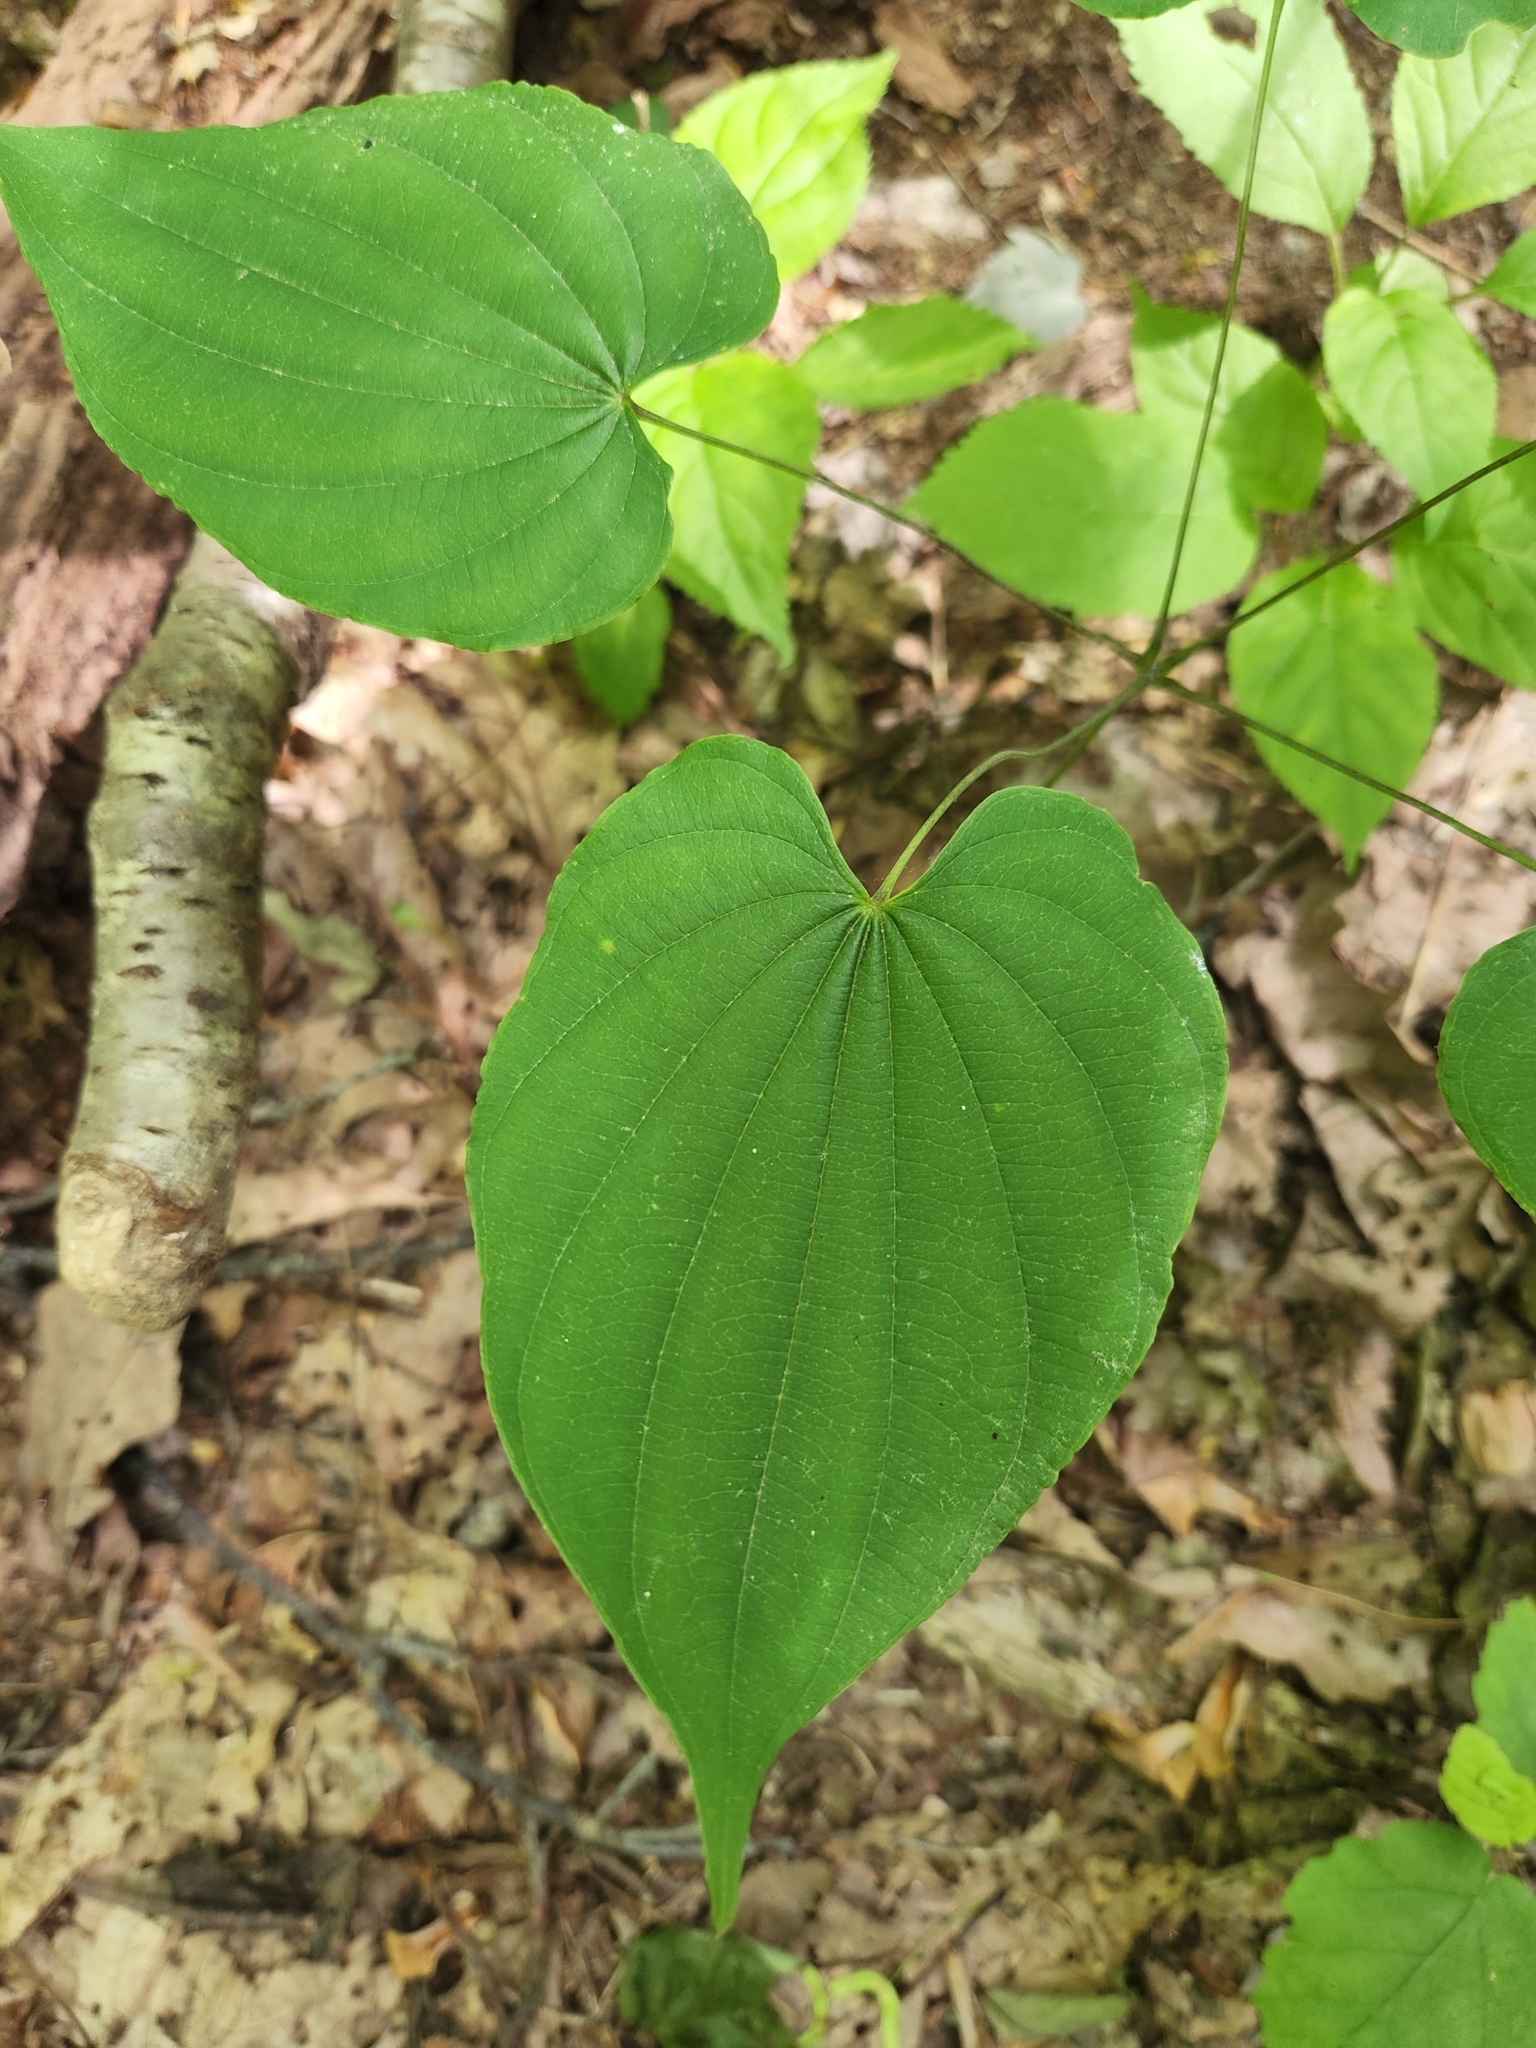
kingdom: Plantae
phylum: Tracheophyta
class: Liliopsida
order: Dioscoreales
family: Dioscoreaceae
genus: Dioscorea
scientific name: Dioscorea villosa
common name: Wild yam
